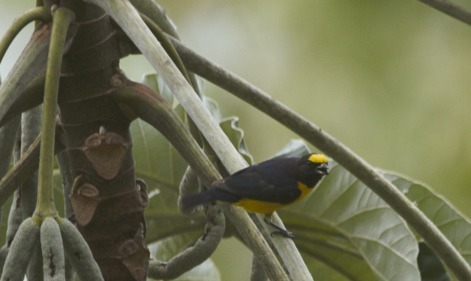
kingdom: Animalia
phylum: Chordata
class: Aves
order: Passeriformes
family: Fringillidae
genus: Euphonia
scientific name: Euphonia chlorotica
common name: Purple-throated euphonia
